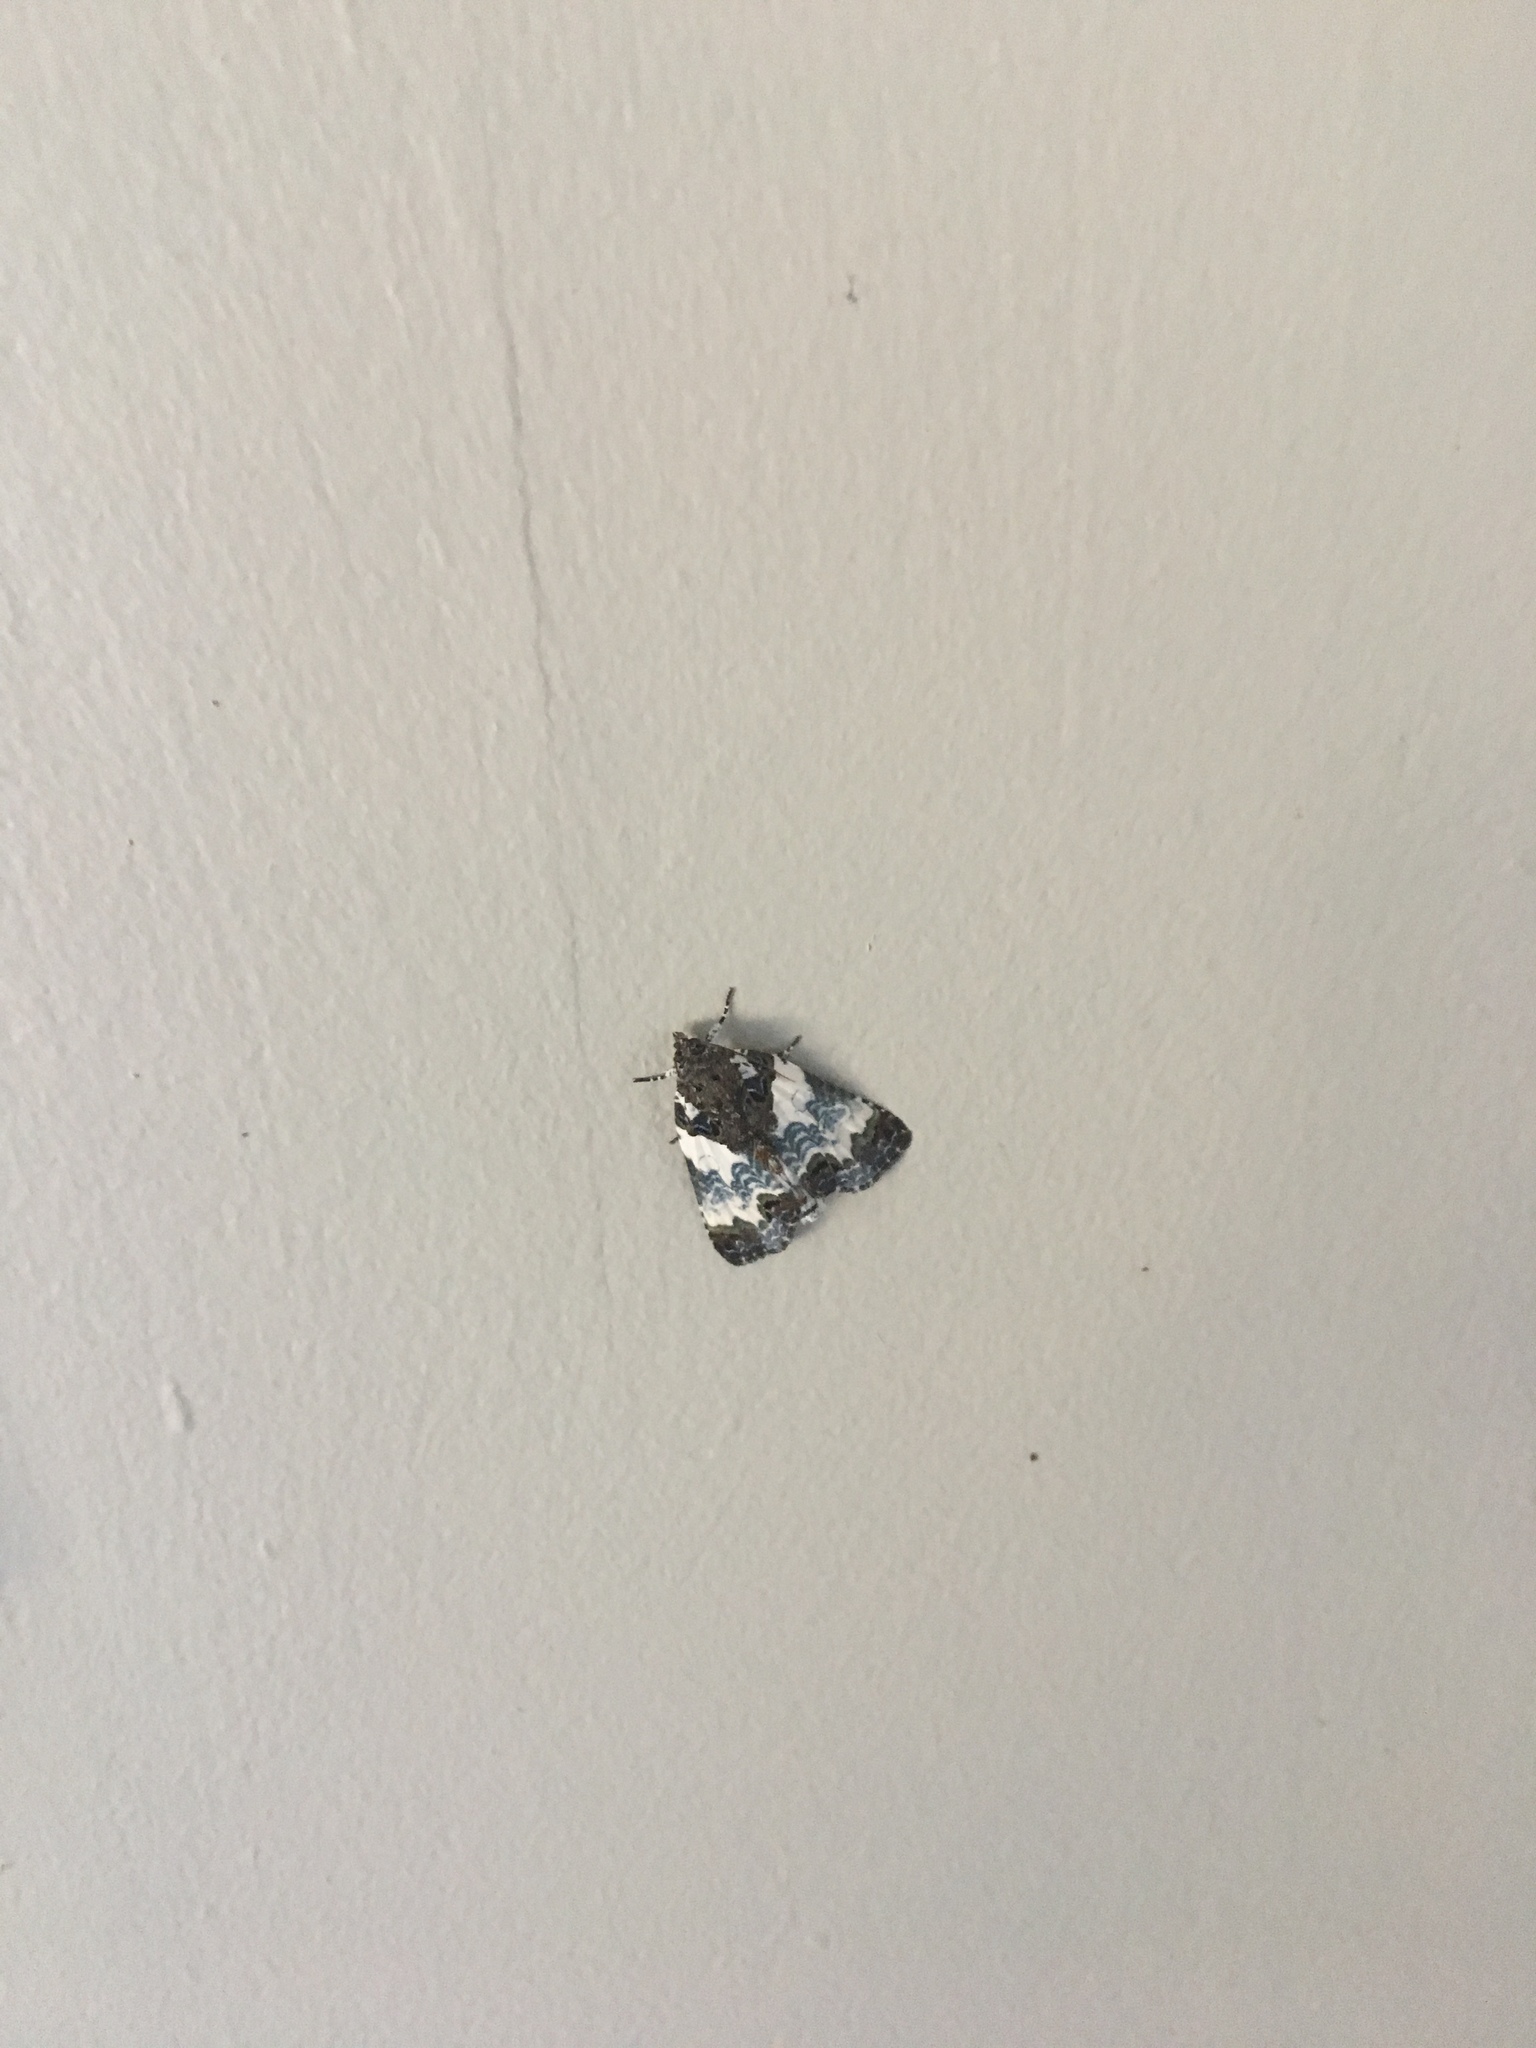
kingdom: Animalia
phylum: Arthropoda
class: Insecta
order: Lepidoptera
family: Noctuidae
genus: Cerma
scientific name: Cerma cerintha
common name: Tufted bird-dropping moth
